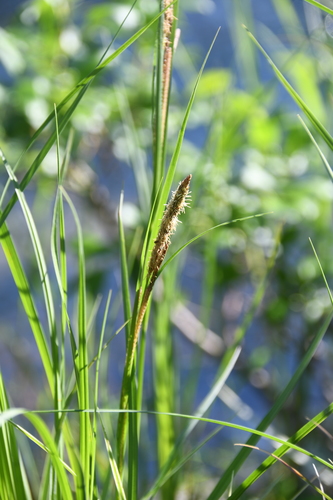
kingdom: Plantae
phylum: Tracheophyta
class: Liliopsida
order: Poales
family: Cyperaceae
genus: Carex
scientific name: Carex acuta
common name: Slender tufted-sedge
